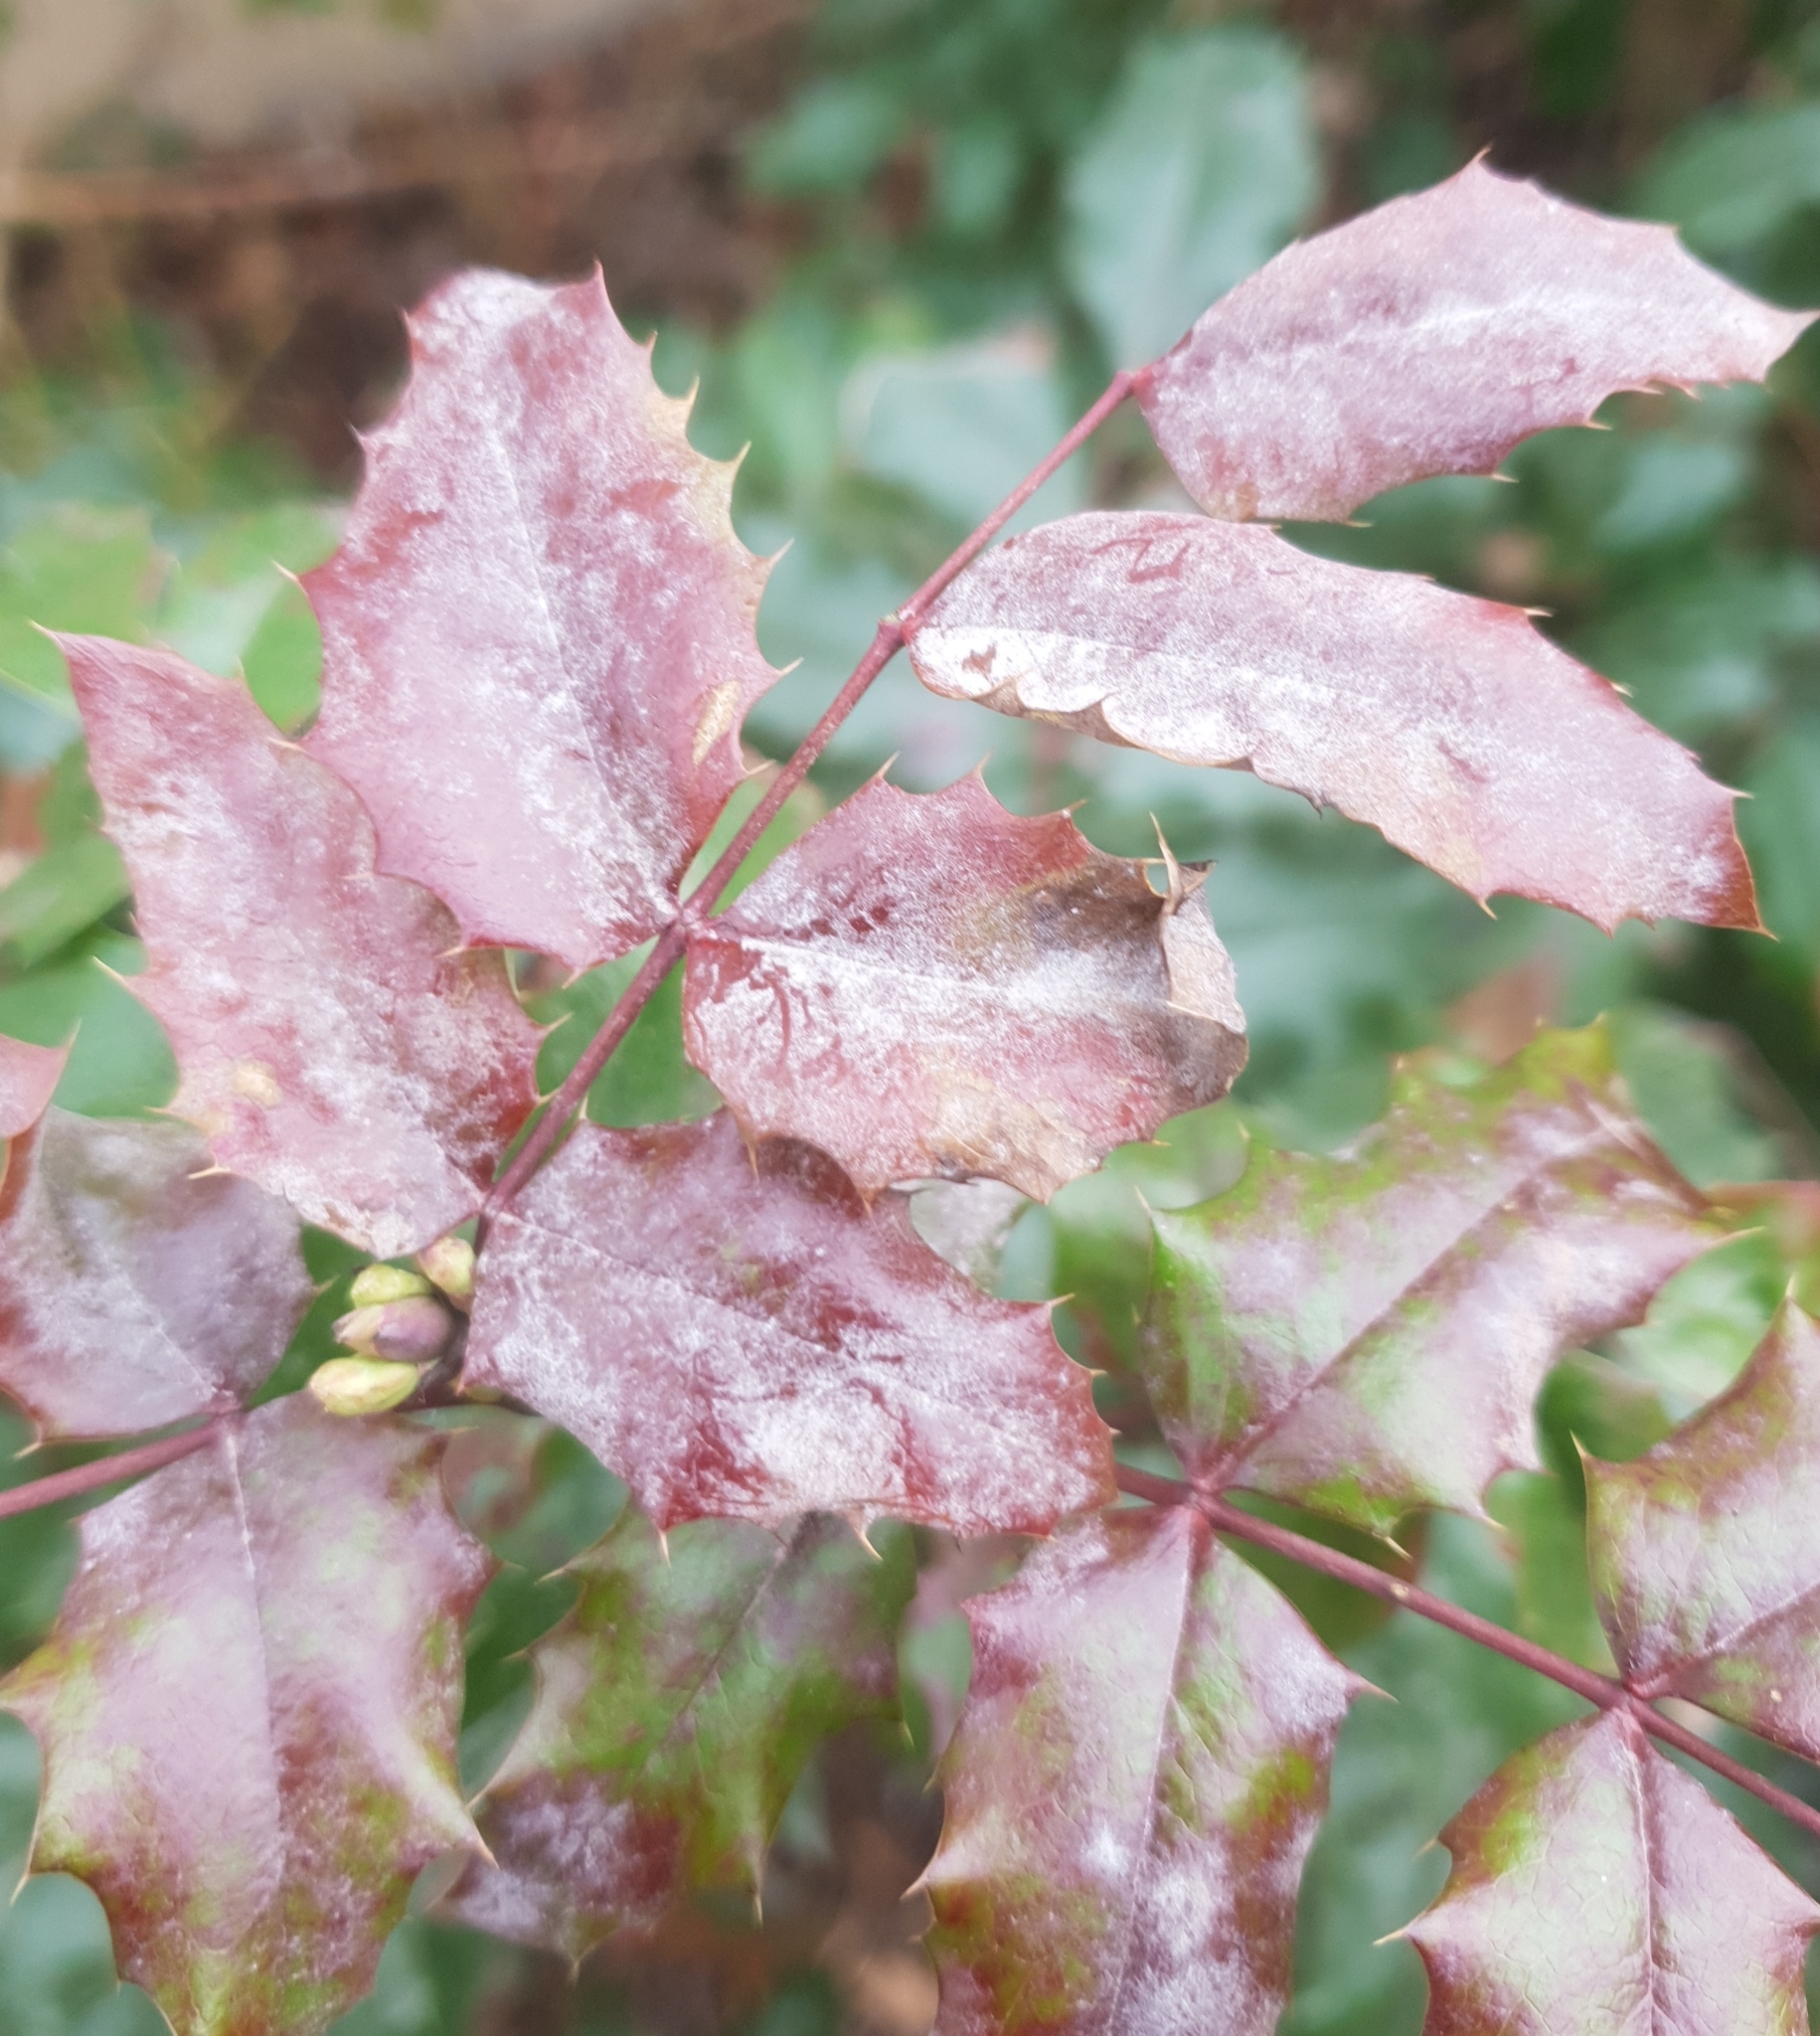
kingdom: Fungi
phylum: Ascomycota
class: Leotiomycetes
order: Helotiales
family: Erysiphaceae
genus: Erysiphe
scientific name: Erysiphe berberidis
